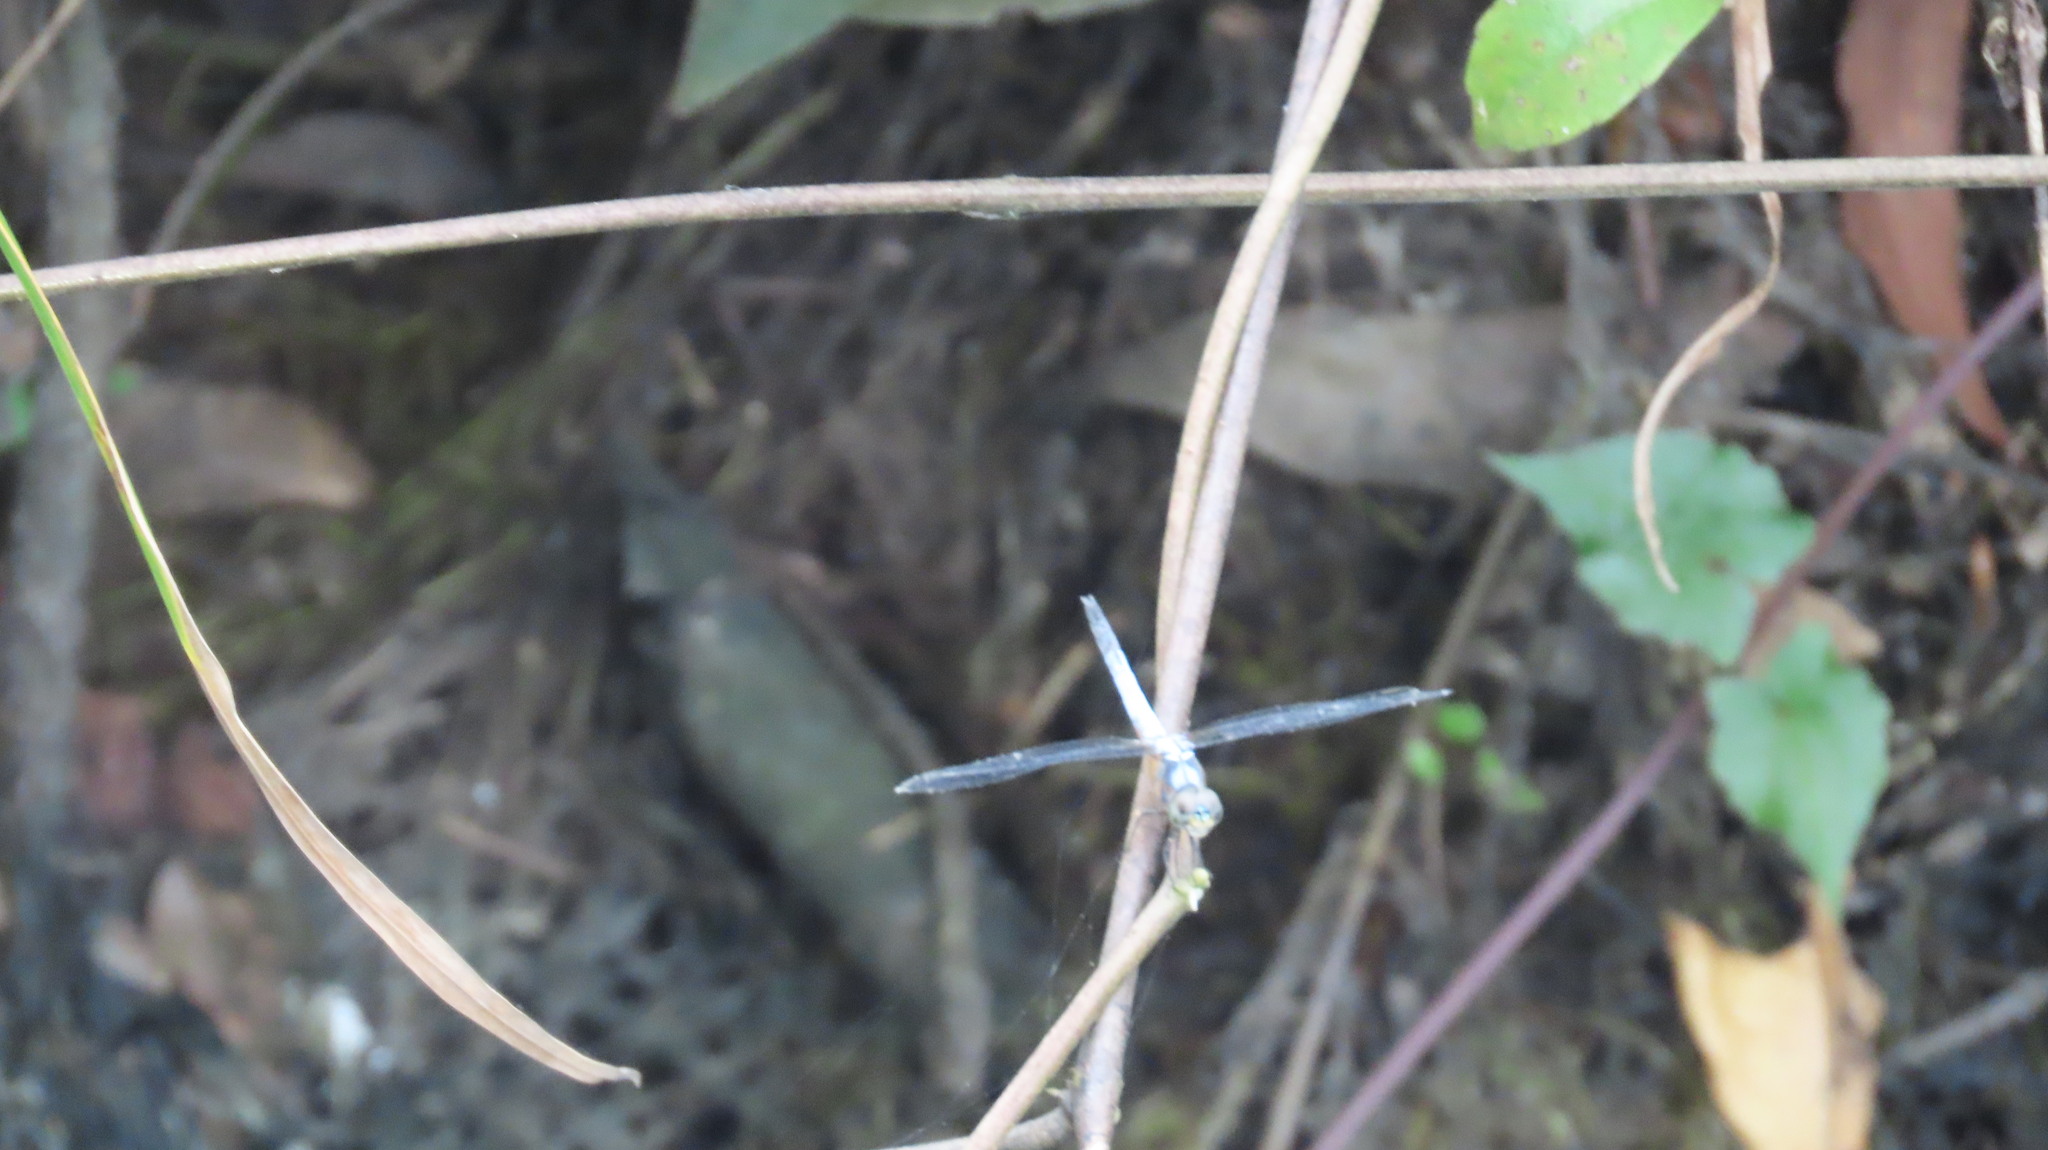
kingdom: Animalia
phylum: Arthropoda
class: Insecta
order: Odonata
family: Libellulidae
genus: Brachydiplax
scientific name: Brachydiplax chalybea
